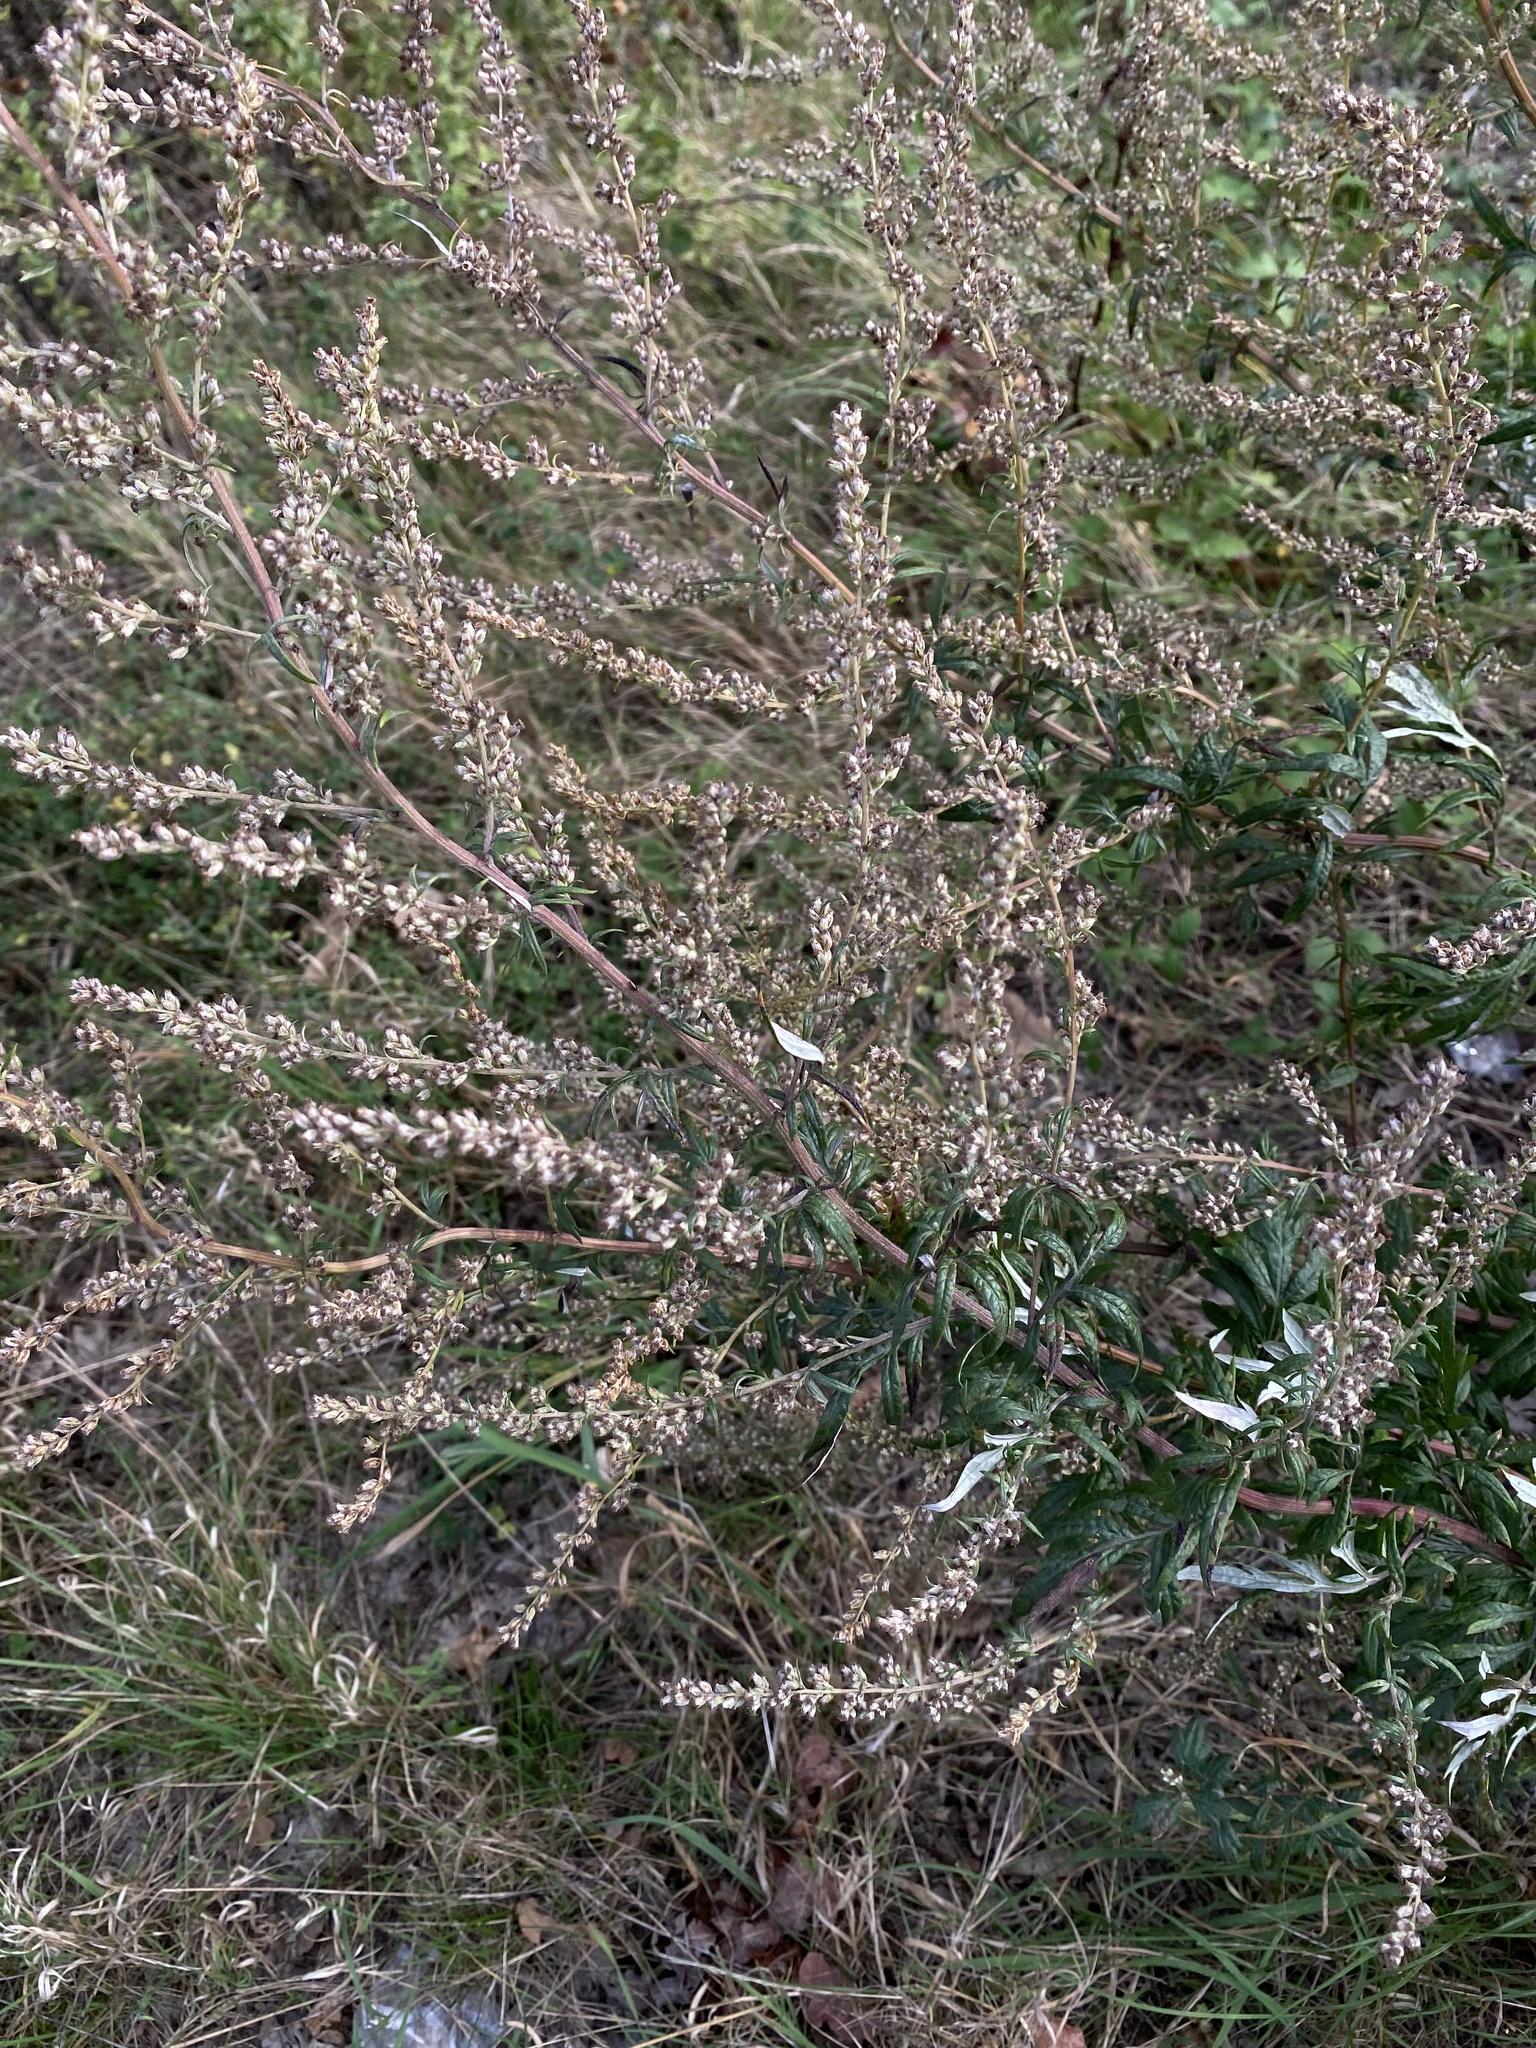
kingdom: Plantae
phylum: Tracheophyta
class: Magnoliopsida
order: Asterales
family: Asteraceae
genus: Artemisia
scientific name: Artemisia vulgaris
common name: Mugwort
